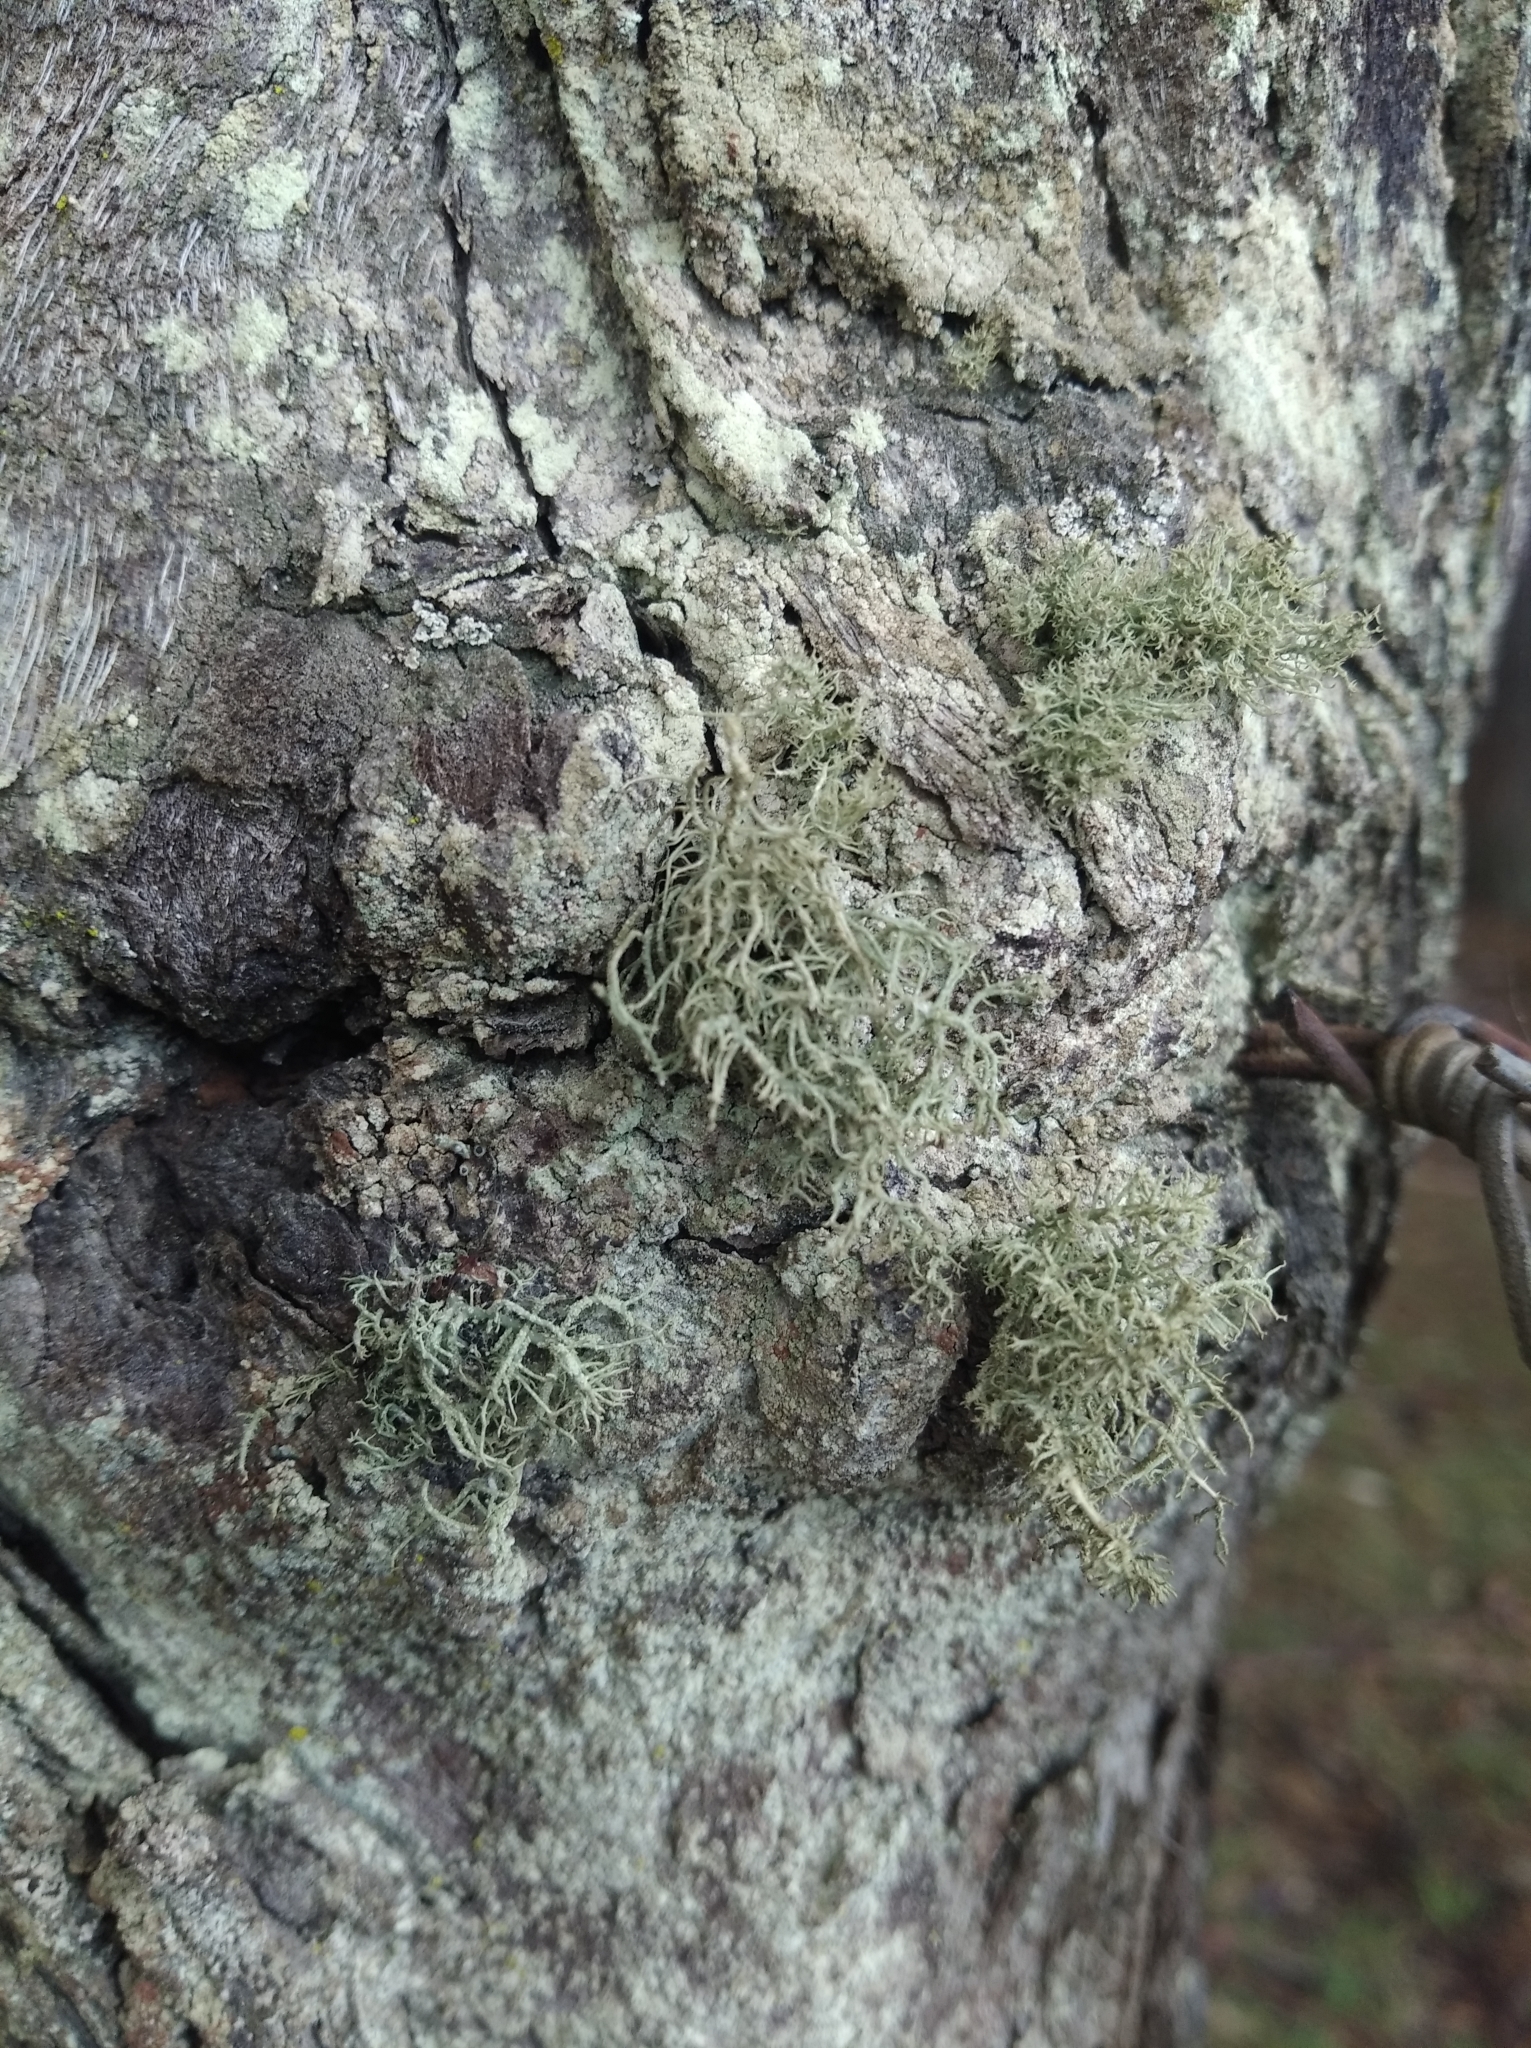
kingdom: Fungi
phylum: Ascomycota
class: Lecanoromycetes
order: Lecanorales
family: Parmeliaceae
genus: Usnea
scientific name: Usnea hirta
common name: Bristly beard lichen
